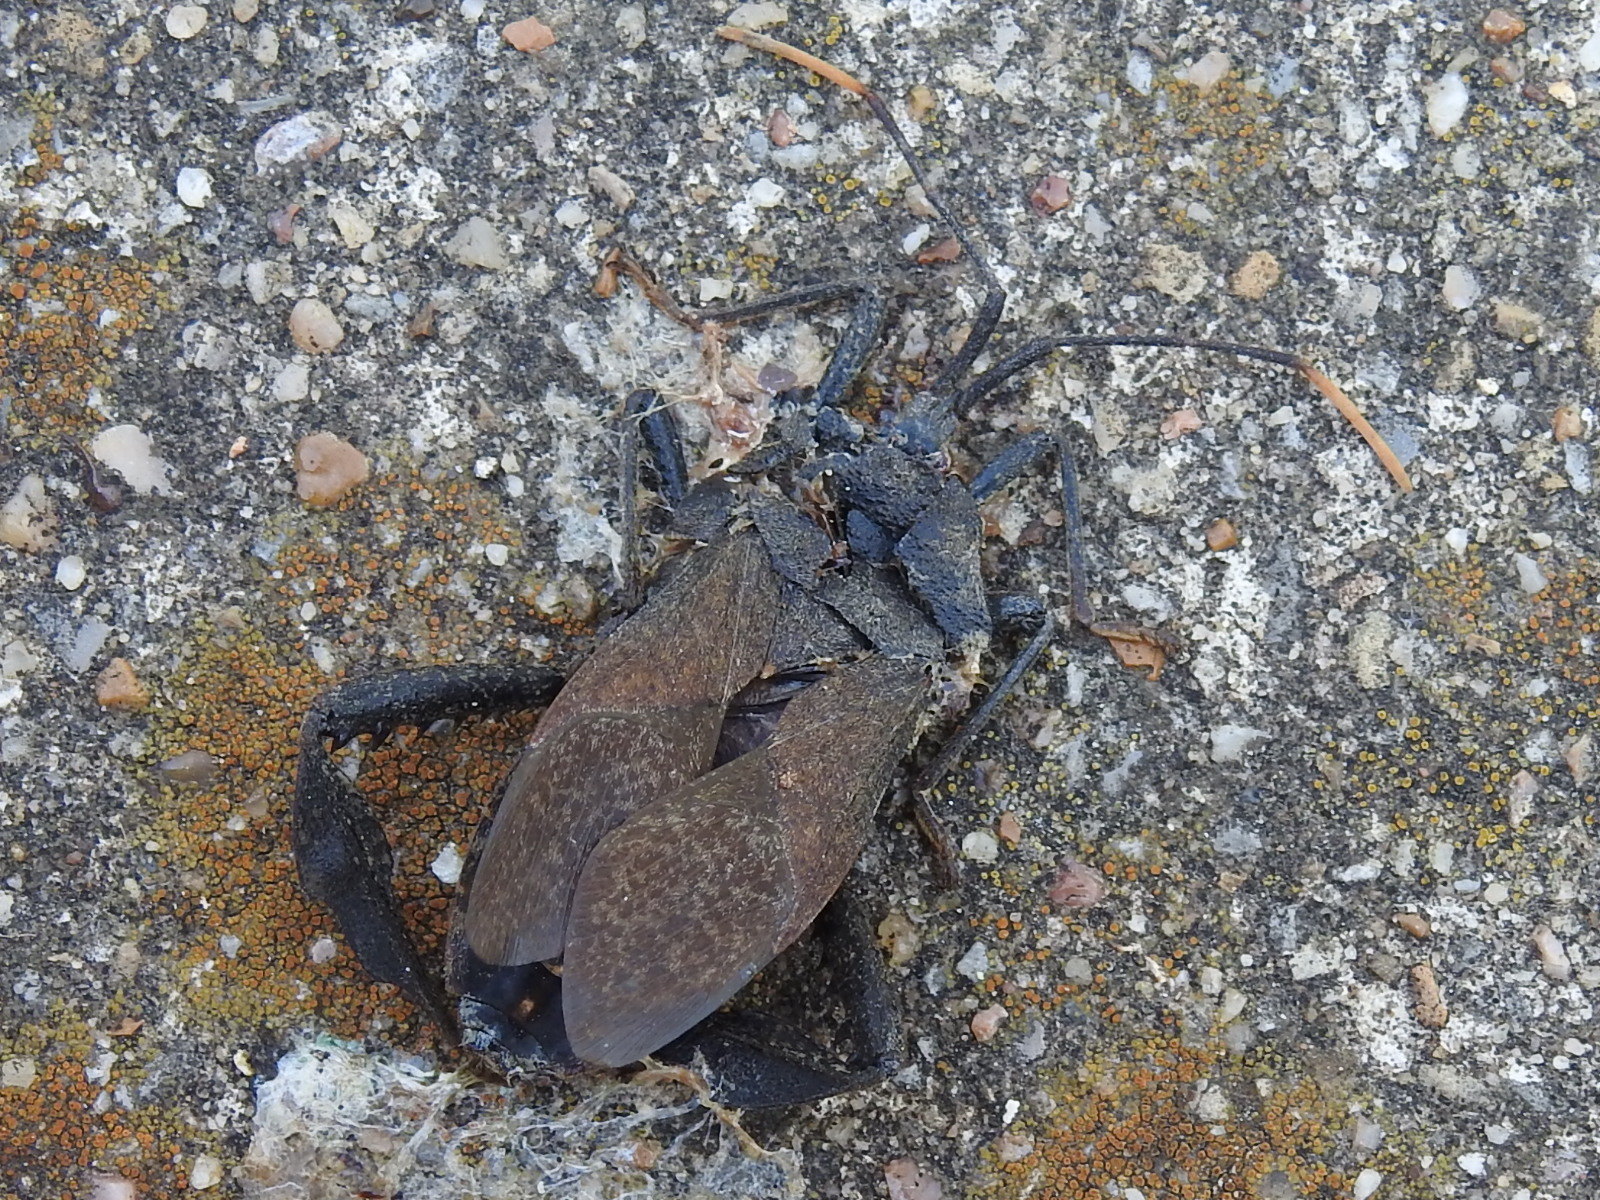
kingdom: Animalia
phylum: Arthropoda
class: Insecta
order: Hemiptera
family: Coreidae
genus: Acanthocephala
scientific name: Acanthocephala terminalis
